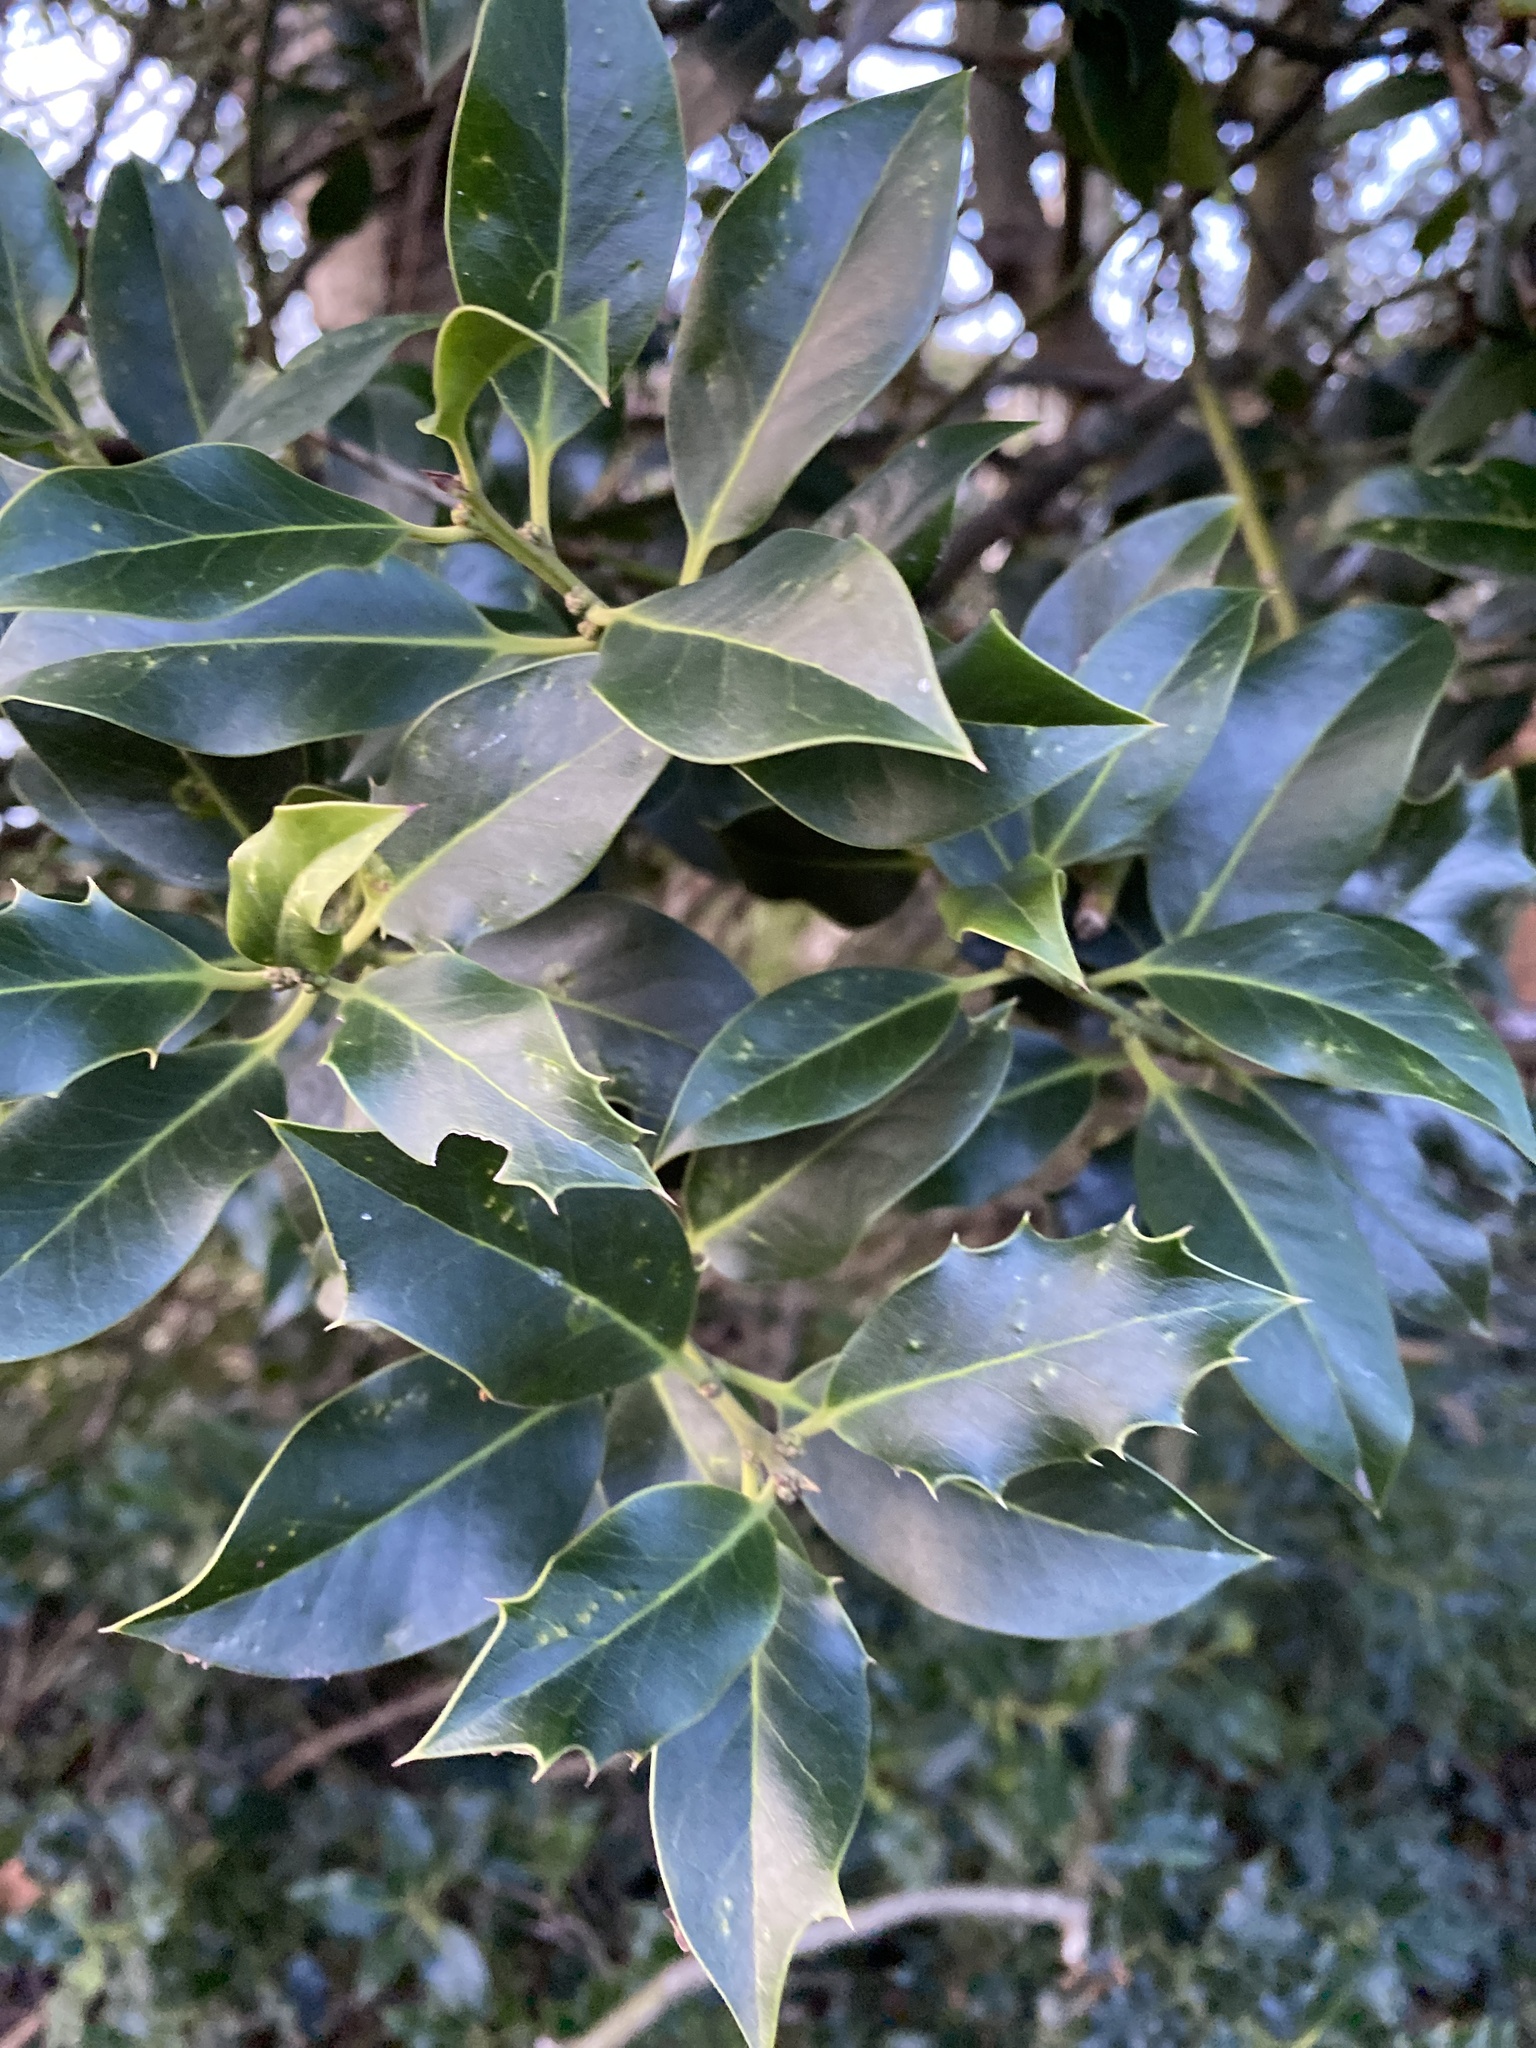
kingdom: Plantae
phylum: Tracheophyta
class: Magnoliopsida
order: Aquifoliales
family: Aquifoliaceae
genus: Ilex
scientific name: Ilex aquifolium
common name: English holly
